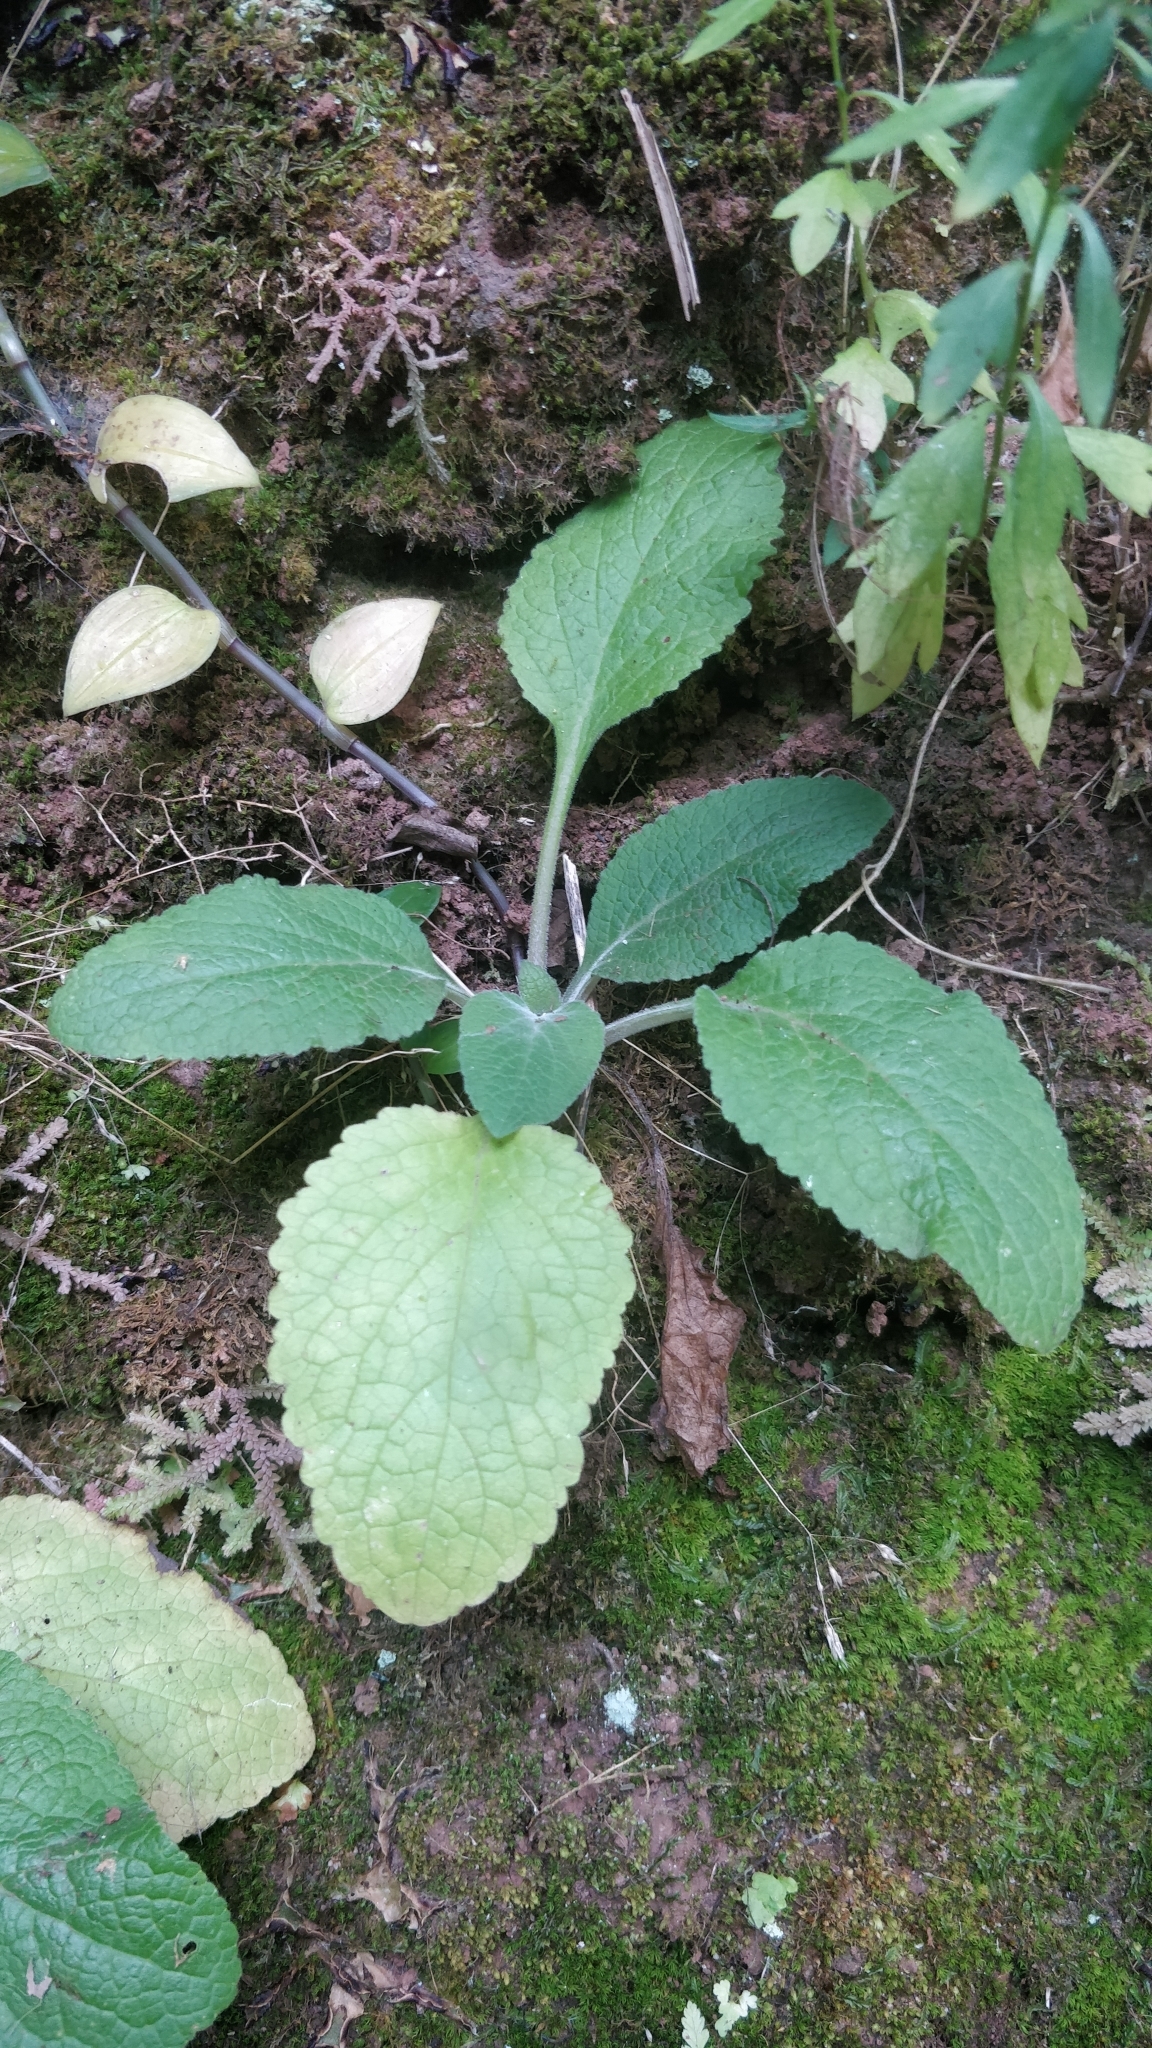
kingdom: Plantae
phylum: Tracheophyta
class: Magnoliopsida
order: Lamiales
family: Plantaginaceae
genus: Digitalis
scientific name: Digitalis purpurea
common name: Foxglove
